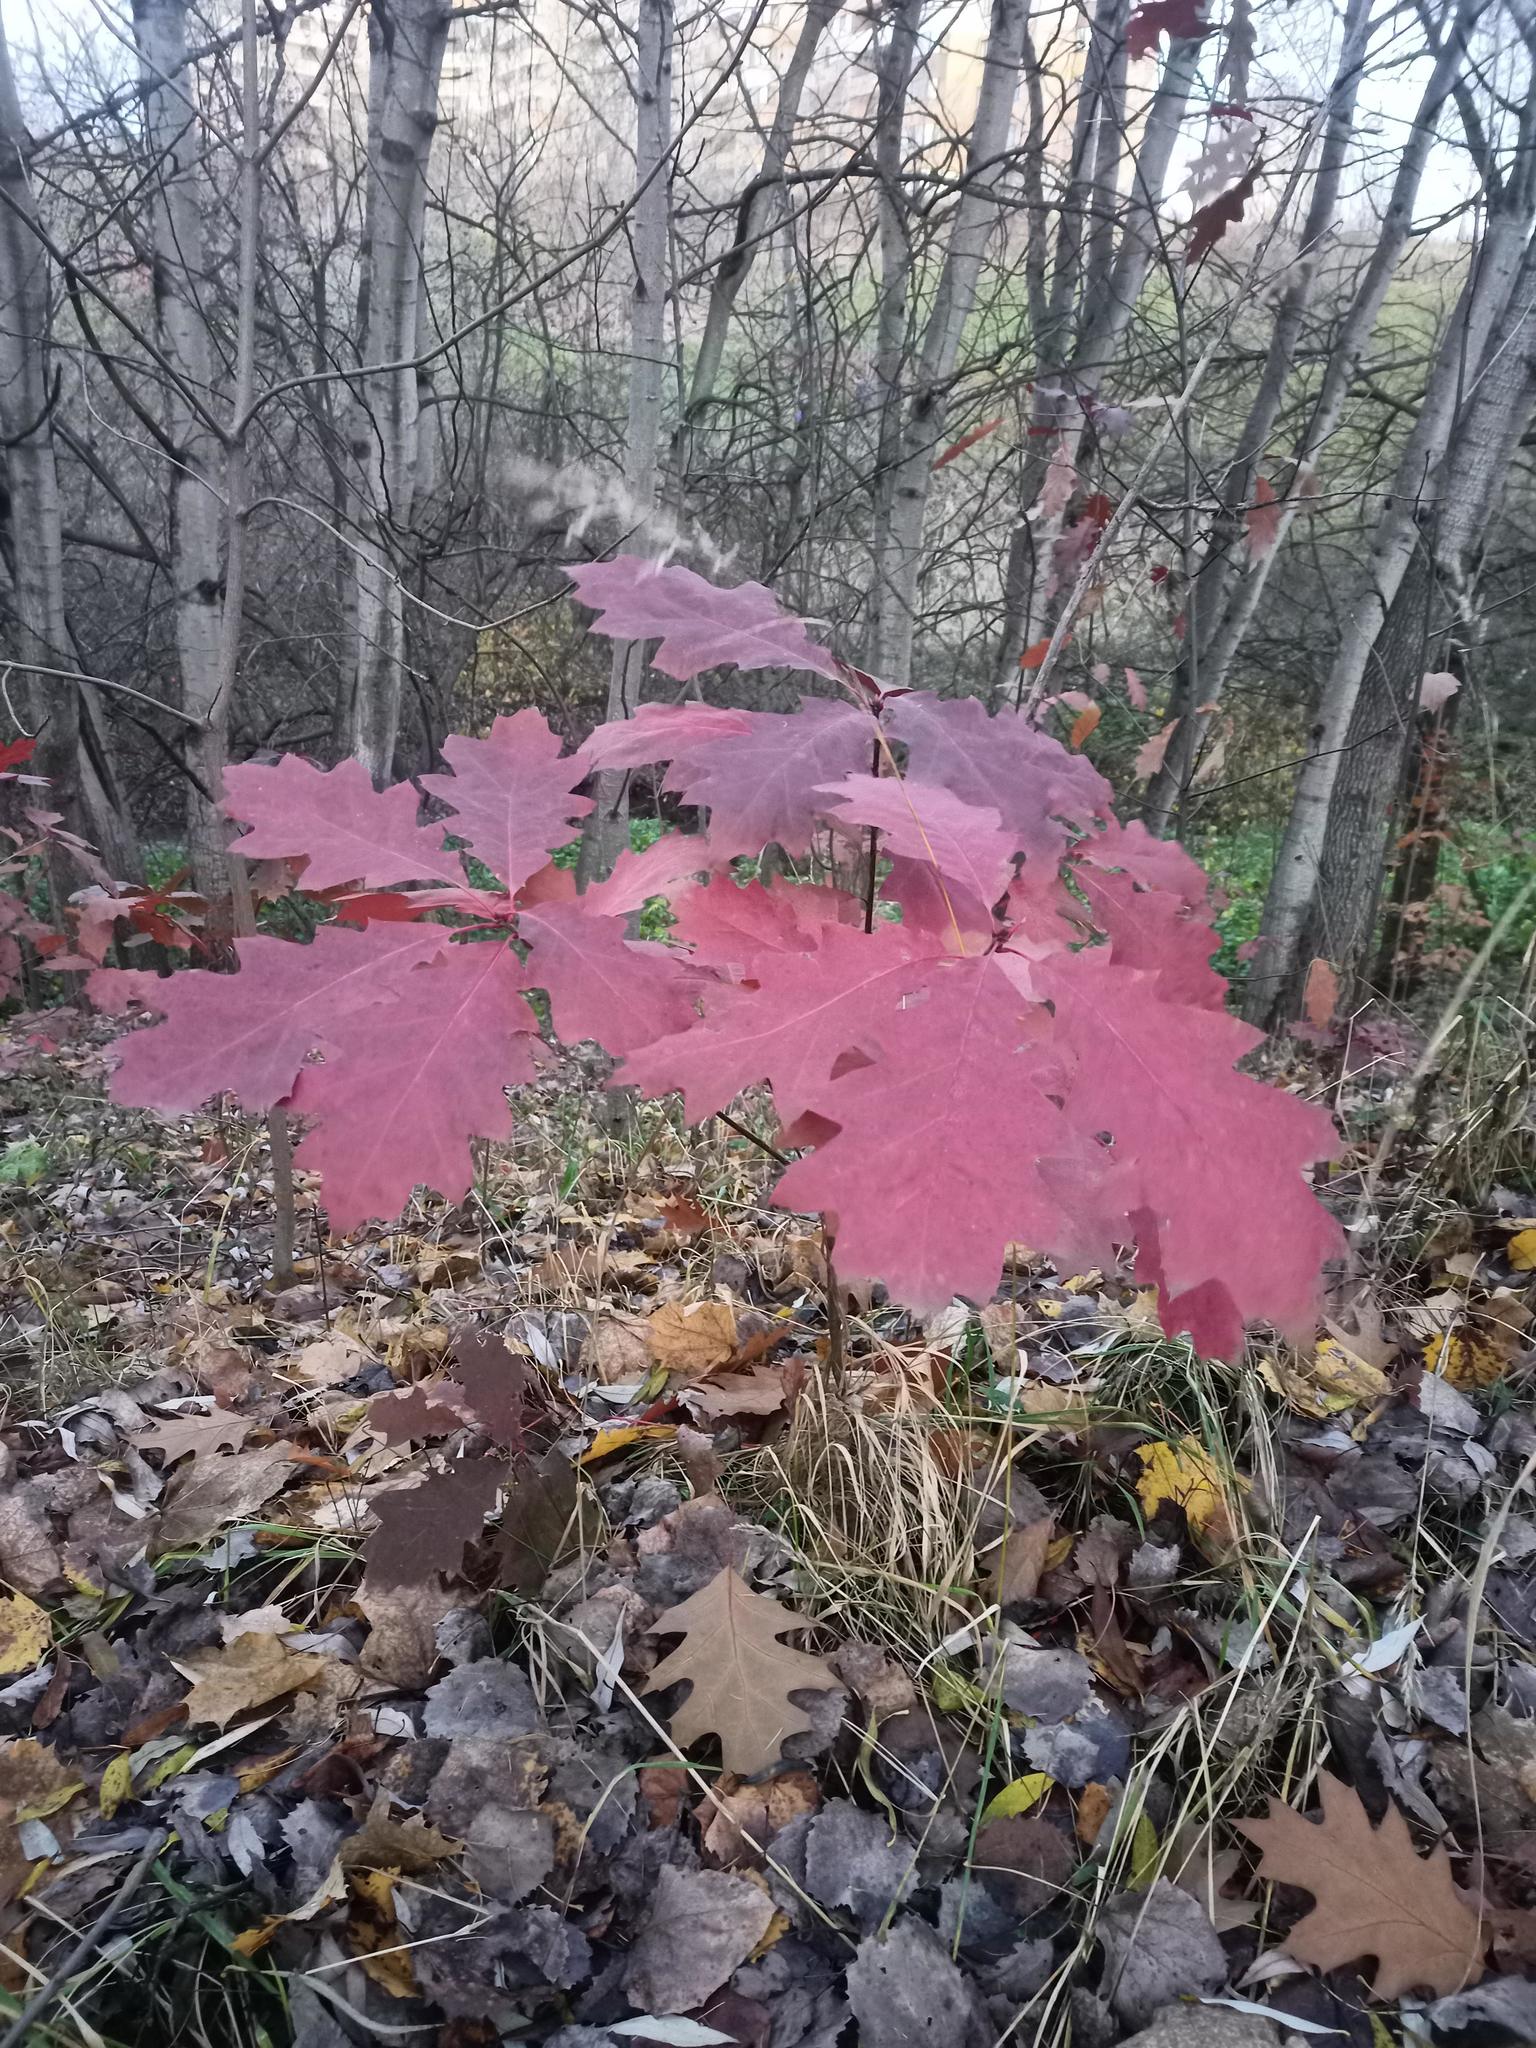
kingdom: Plantae
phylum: Tracheophyta
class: Magnoliopsida
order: Fagales
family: Fagaceae
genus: Quercus
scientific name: Quercus rubra
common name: Red oak
